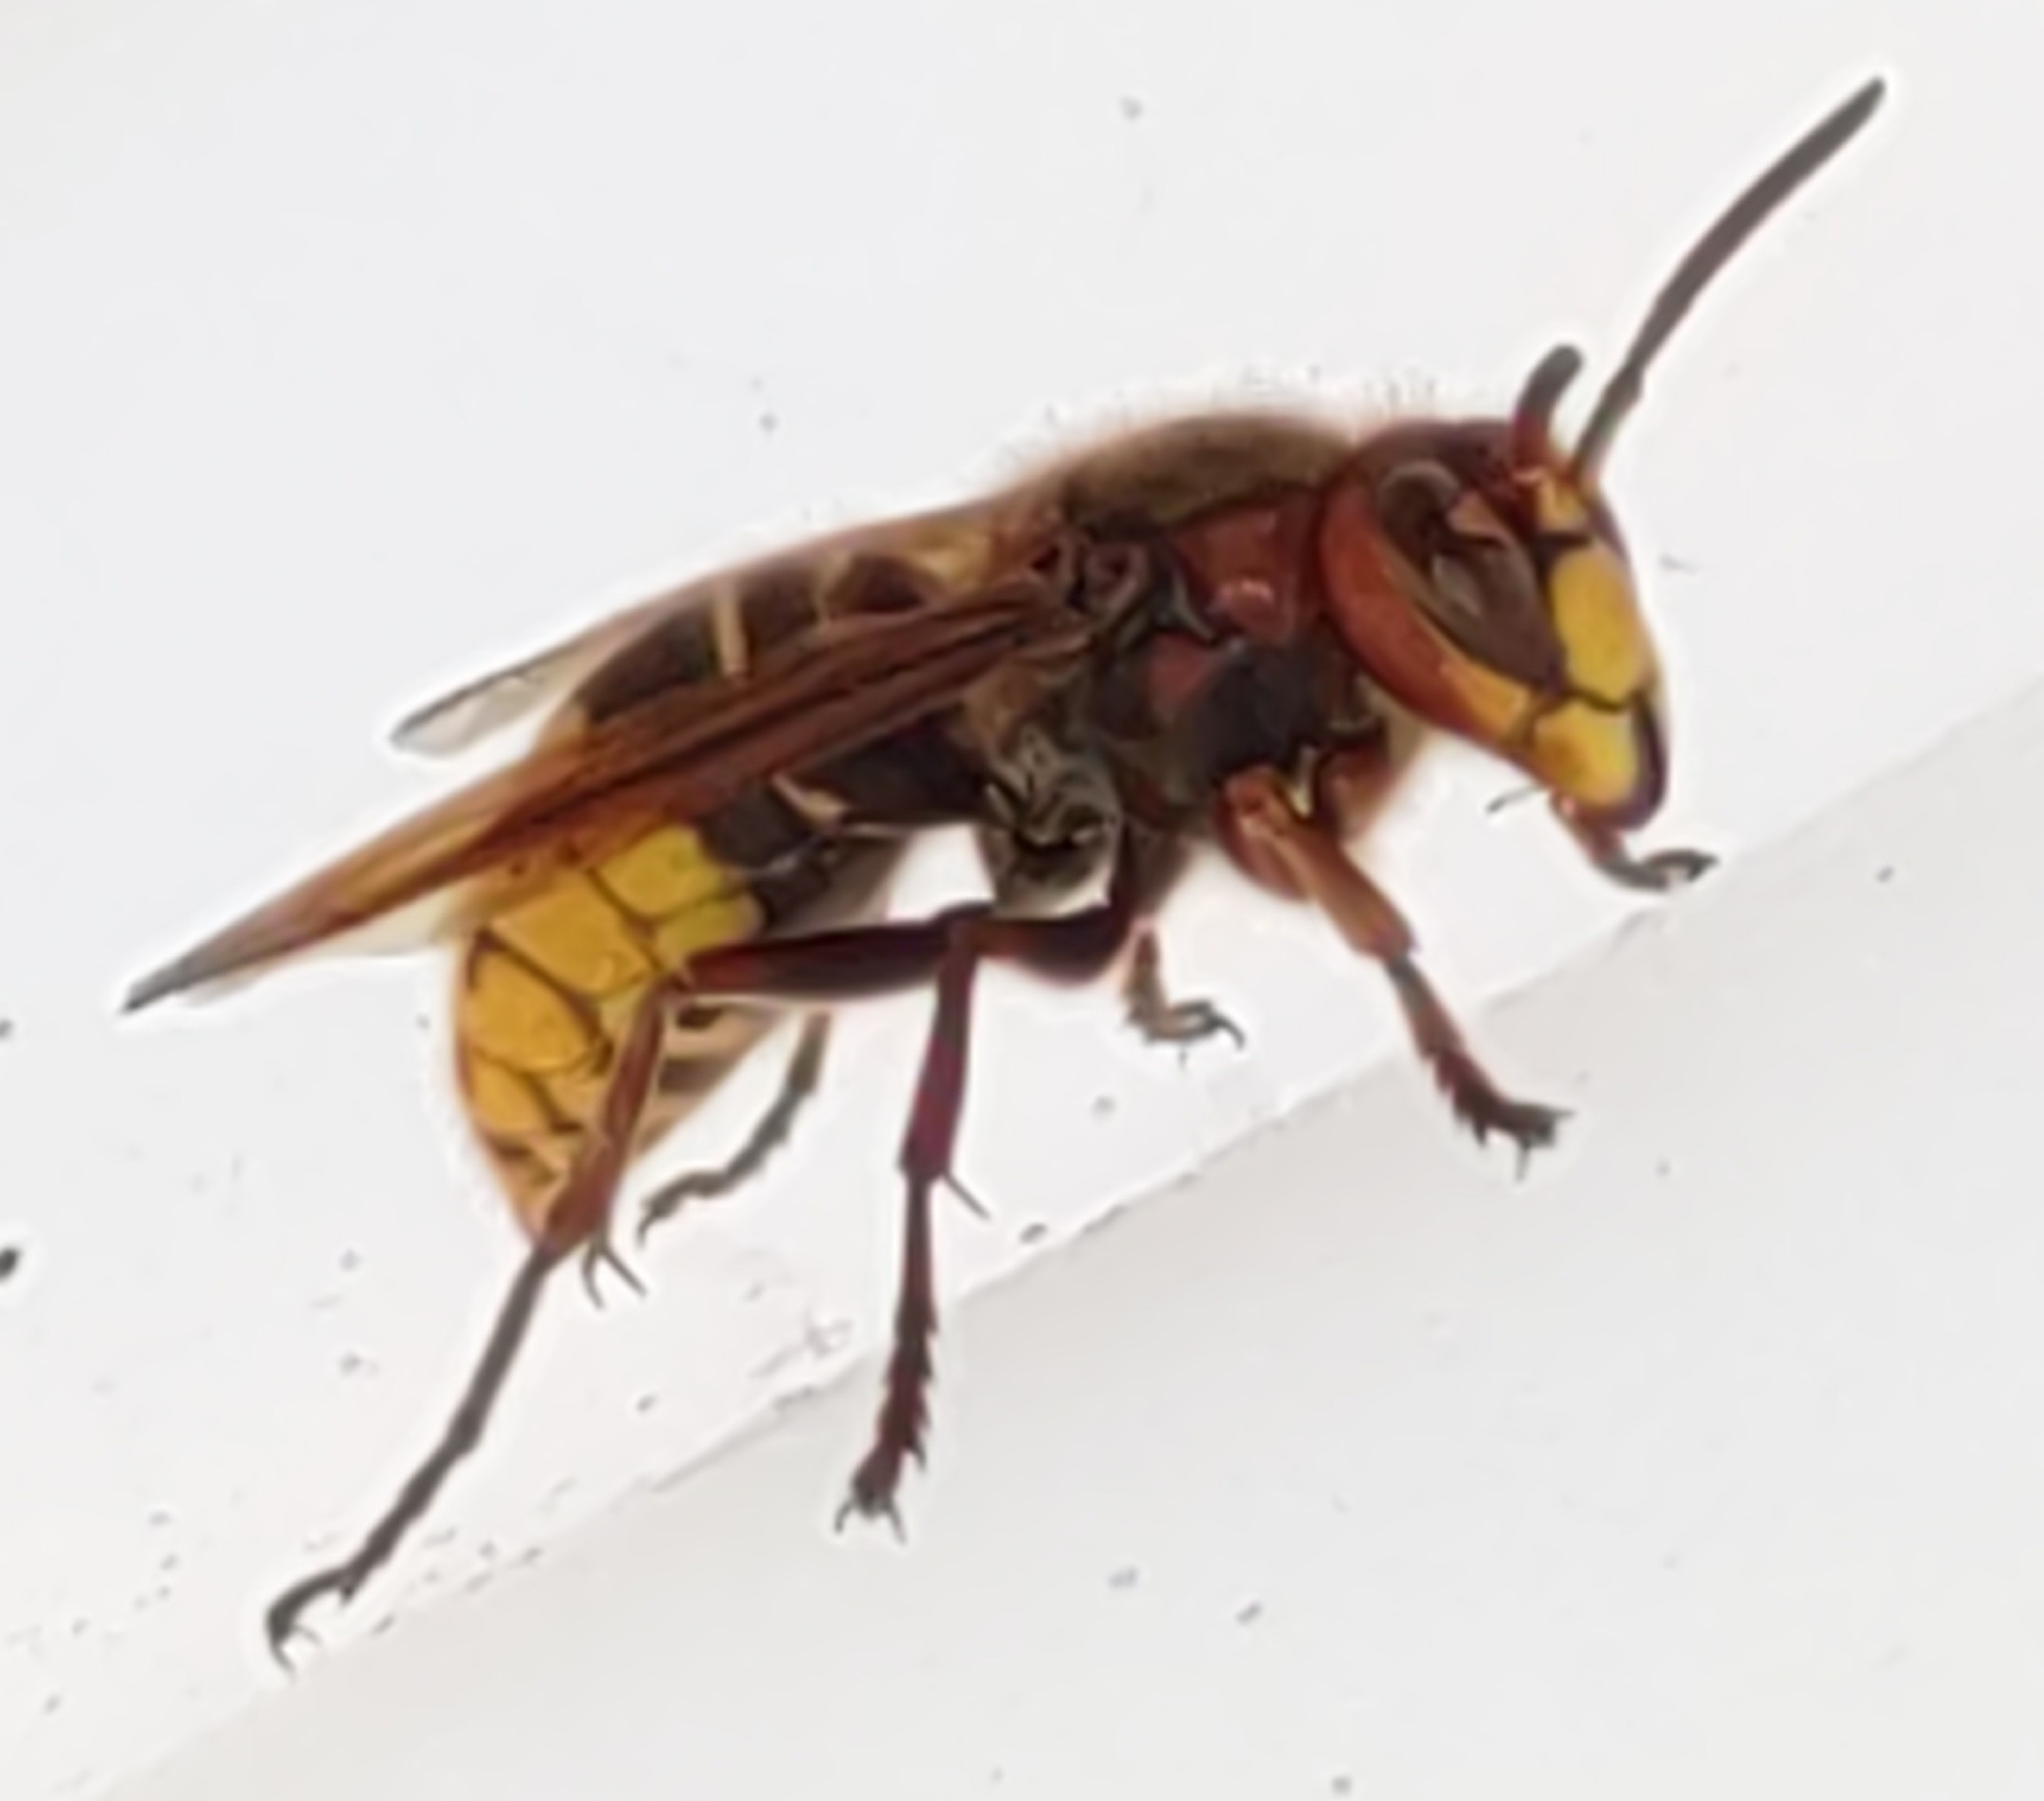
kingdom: Animalia
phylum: Arthropoda
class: Insecta
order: Hymenoptera
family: Vespidae
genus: Vespa
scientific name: Vespa crabro
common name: Hornet
